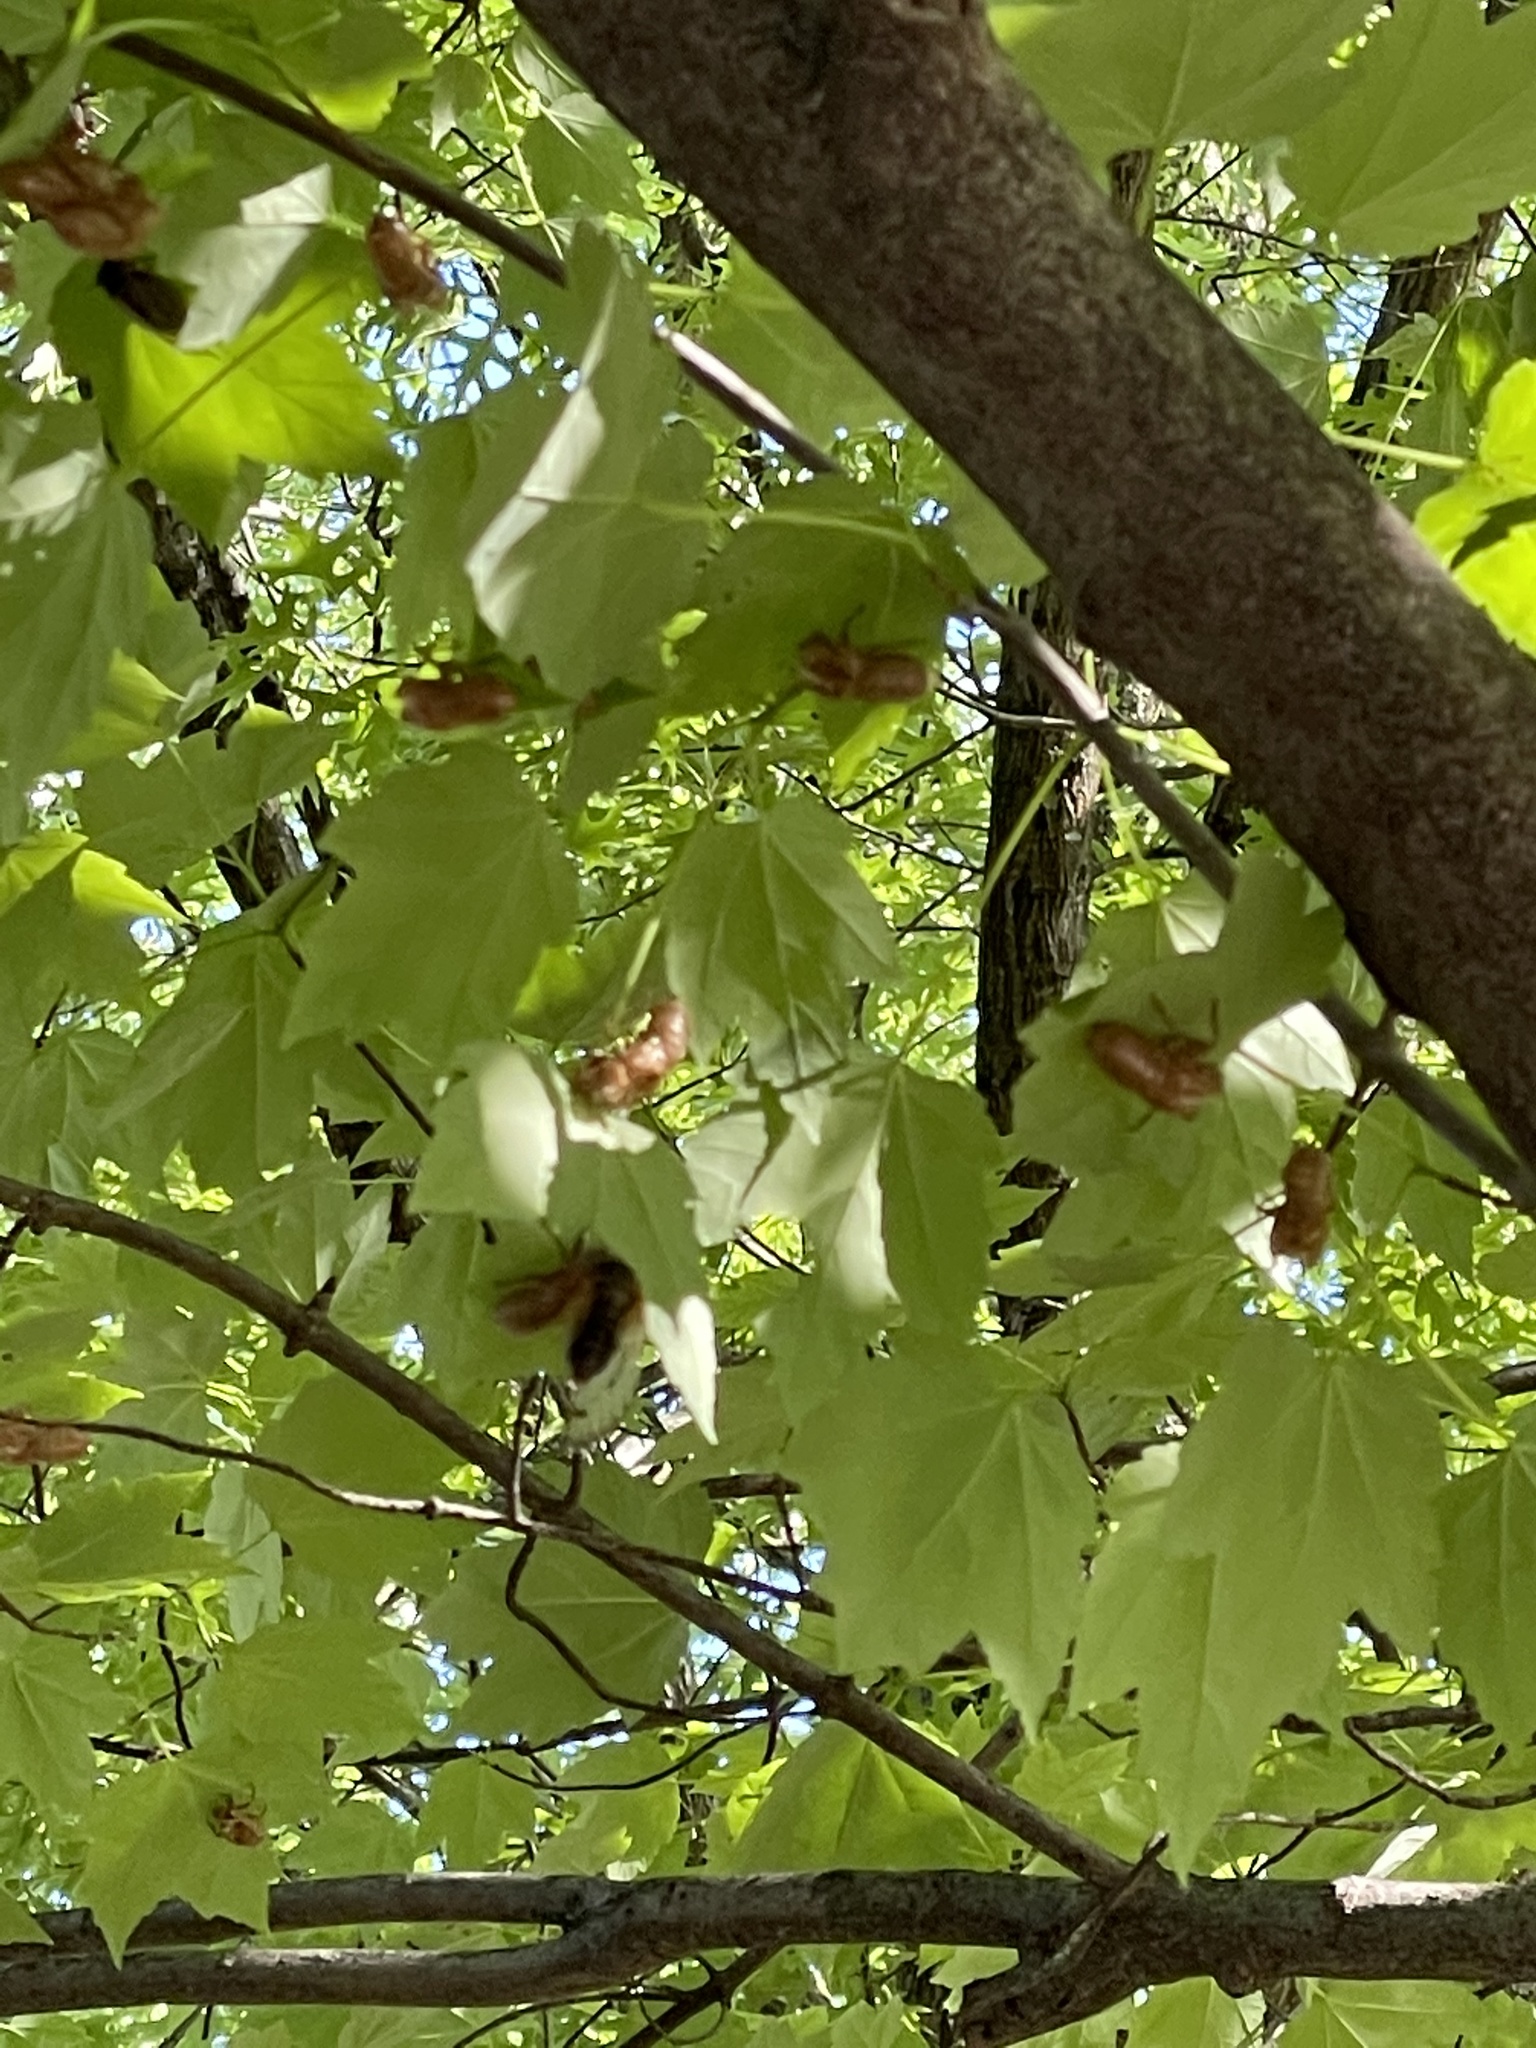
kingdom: Animalia
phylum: Arthropoda
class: Insecta
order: Hemiptera
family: Cicadidae
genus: Magicicada
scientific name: Magicicada
